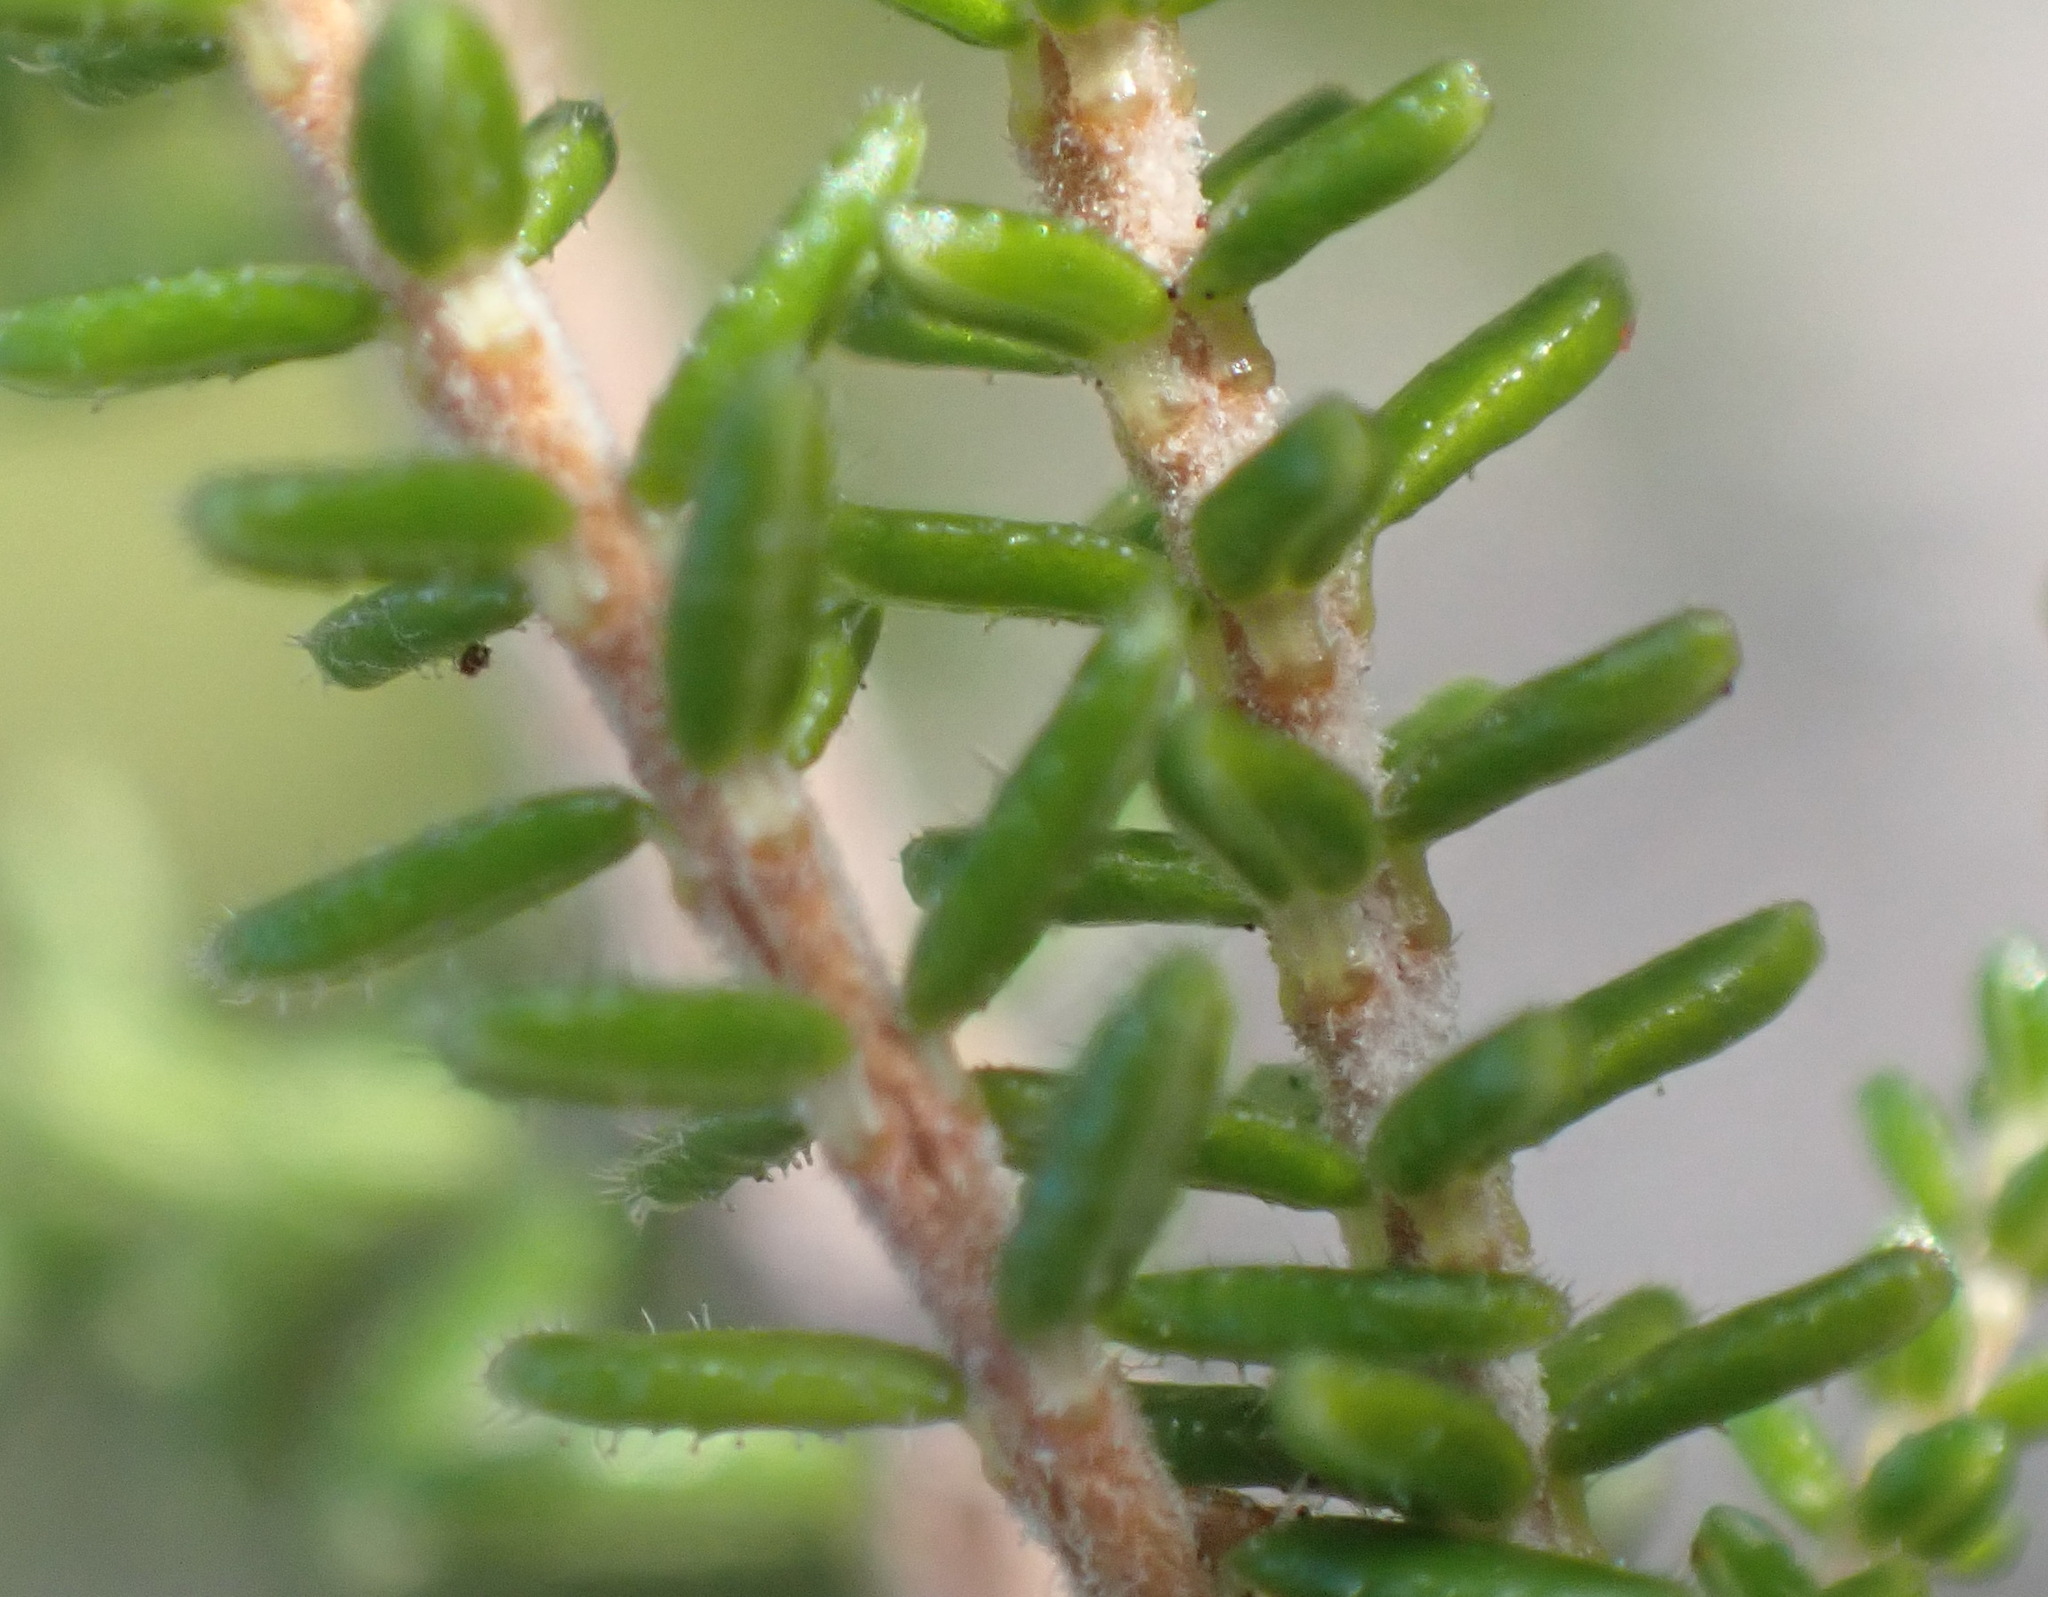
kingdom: Plantae
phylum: Tracheophyta
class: Magnoliopsida
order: Ericales
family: Ericaceae
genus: Erica
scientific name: Erica formosa
